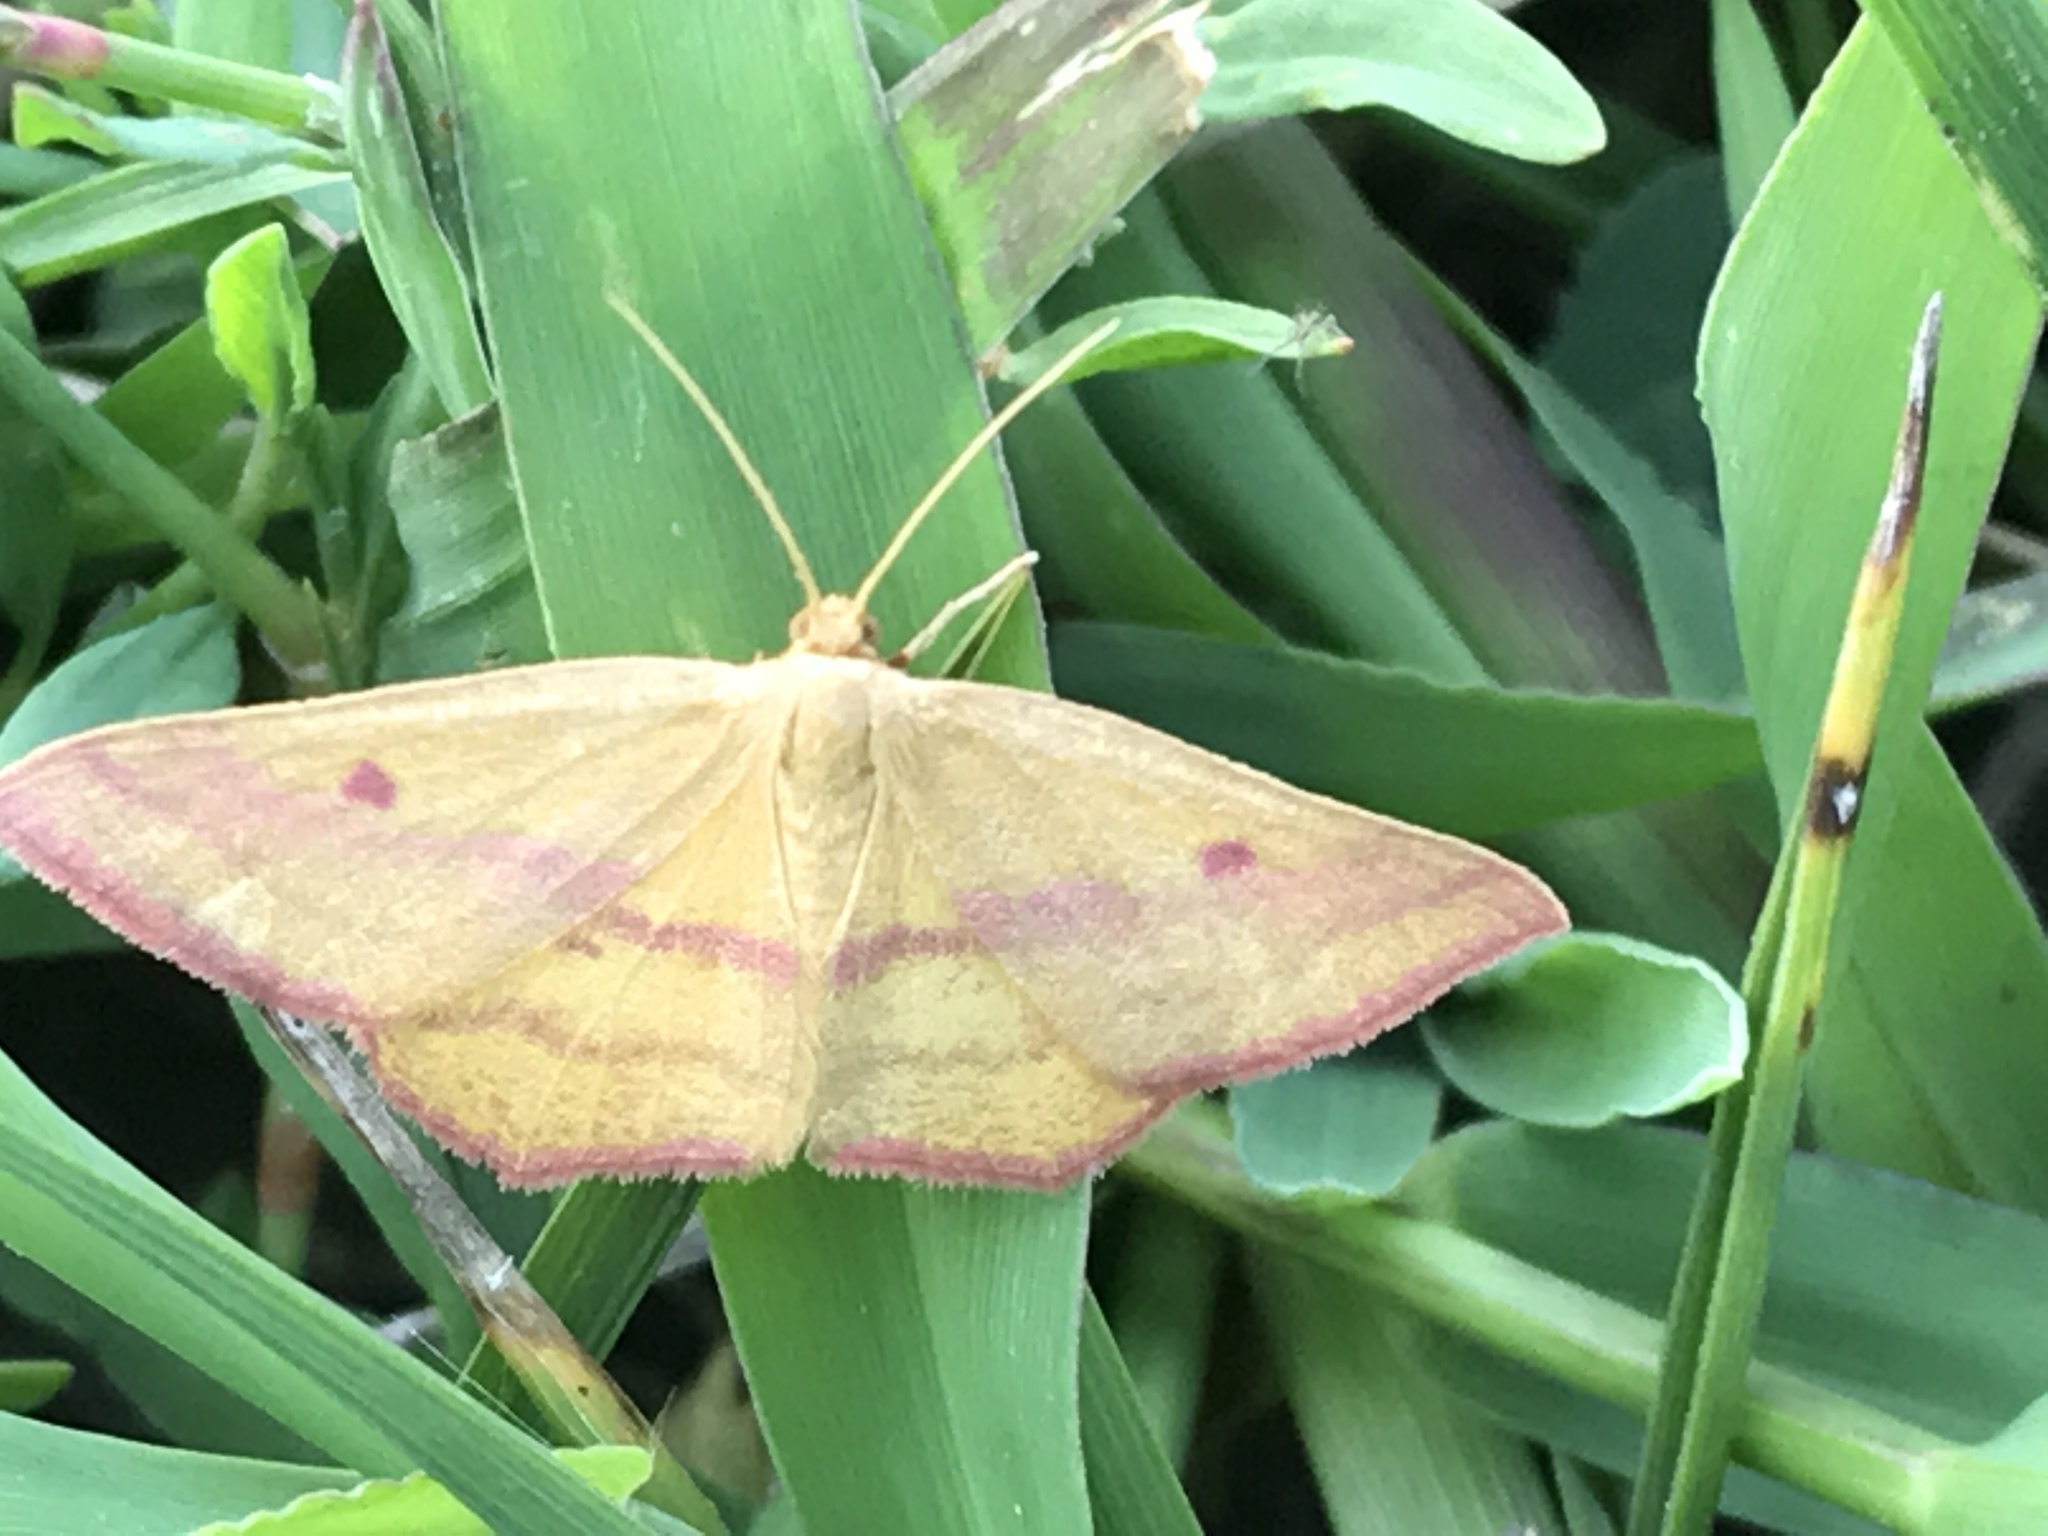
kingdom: Animalia
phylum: Arthropoda
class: Insecta
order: Lepidoptera
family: Geometridae
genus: Haematopis
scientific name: Haematopis grataria
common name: Chickweed geometer
